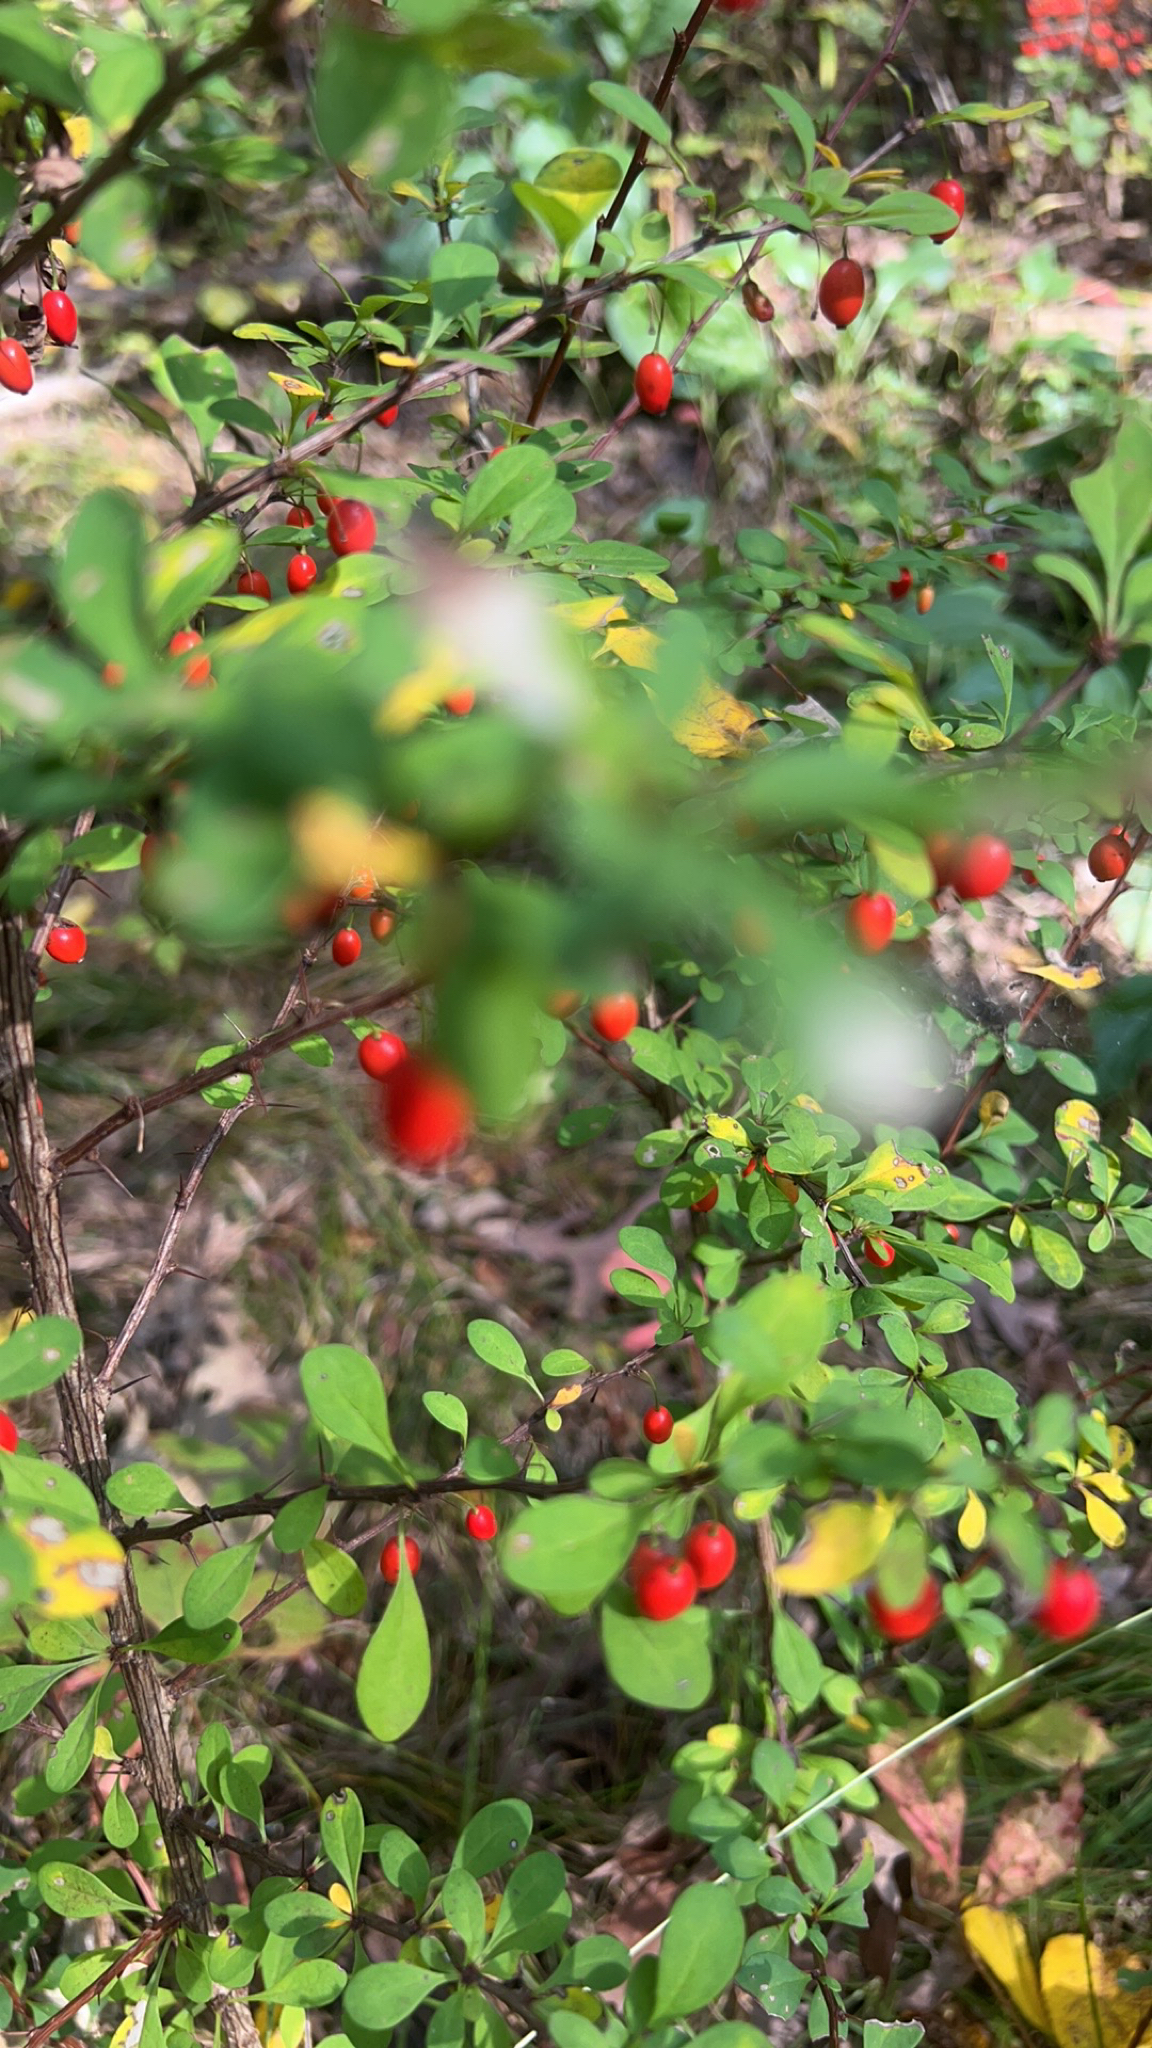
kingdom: Plantae
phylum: Tracheophyta
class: Magnoliopsida
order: Ranunculales
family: Berberidaceae
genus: Berberis
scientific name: Berberis thunbergii
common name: Japanese barberry
